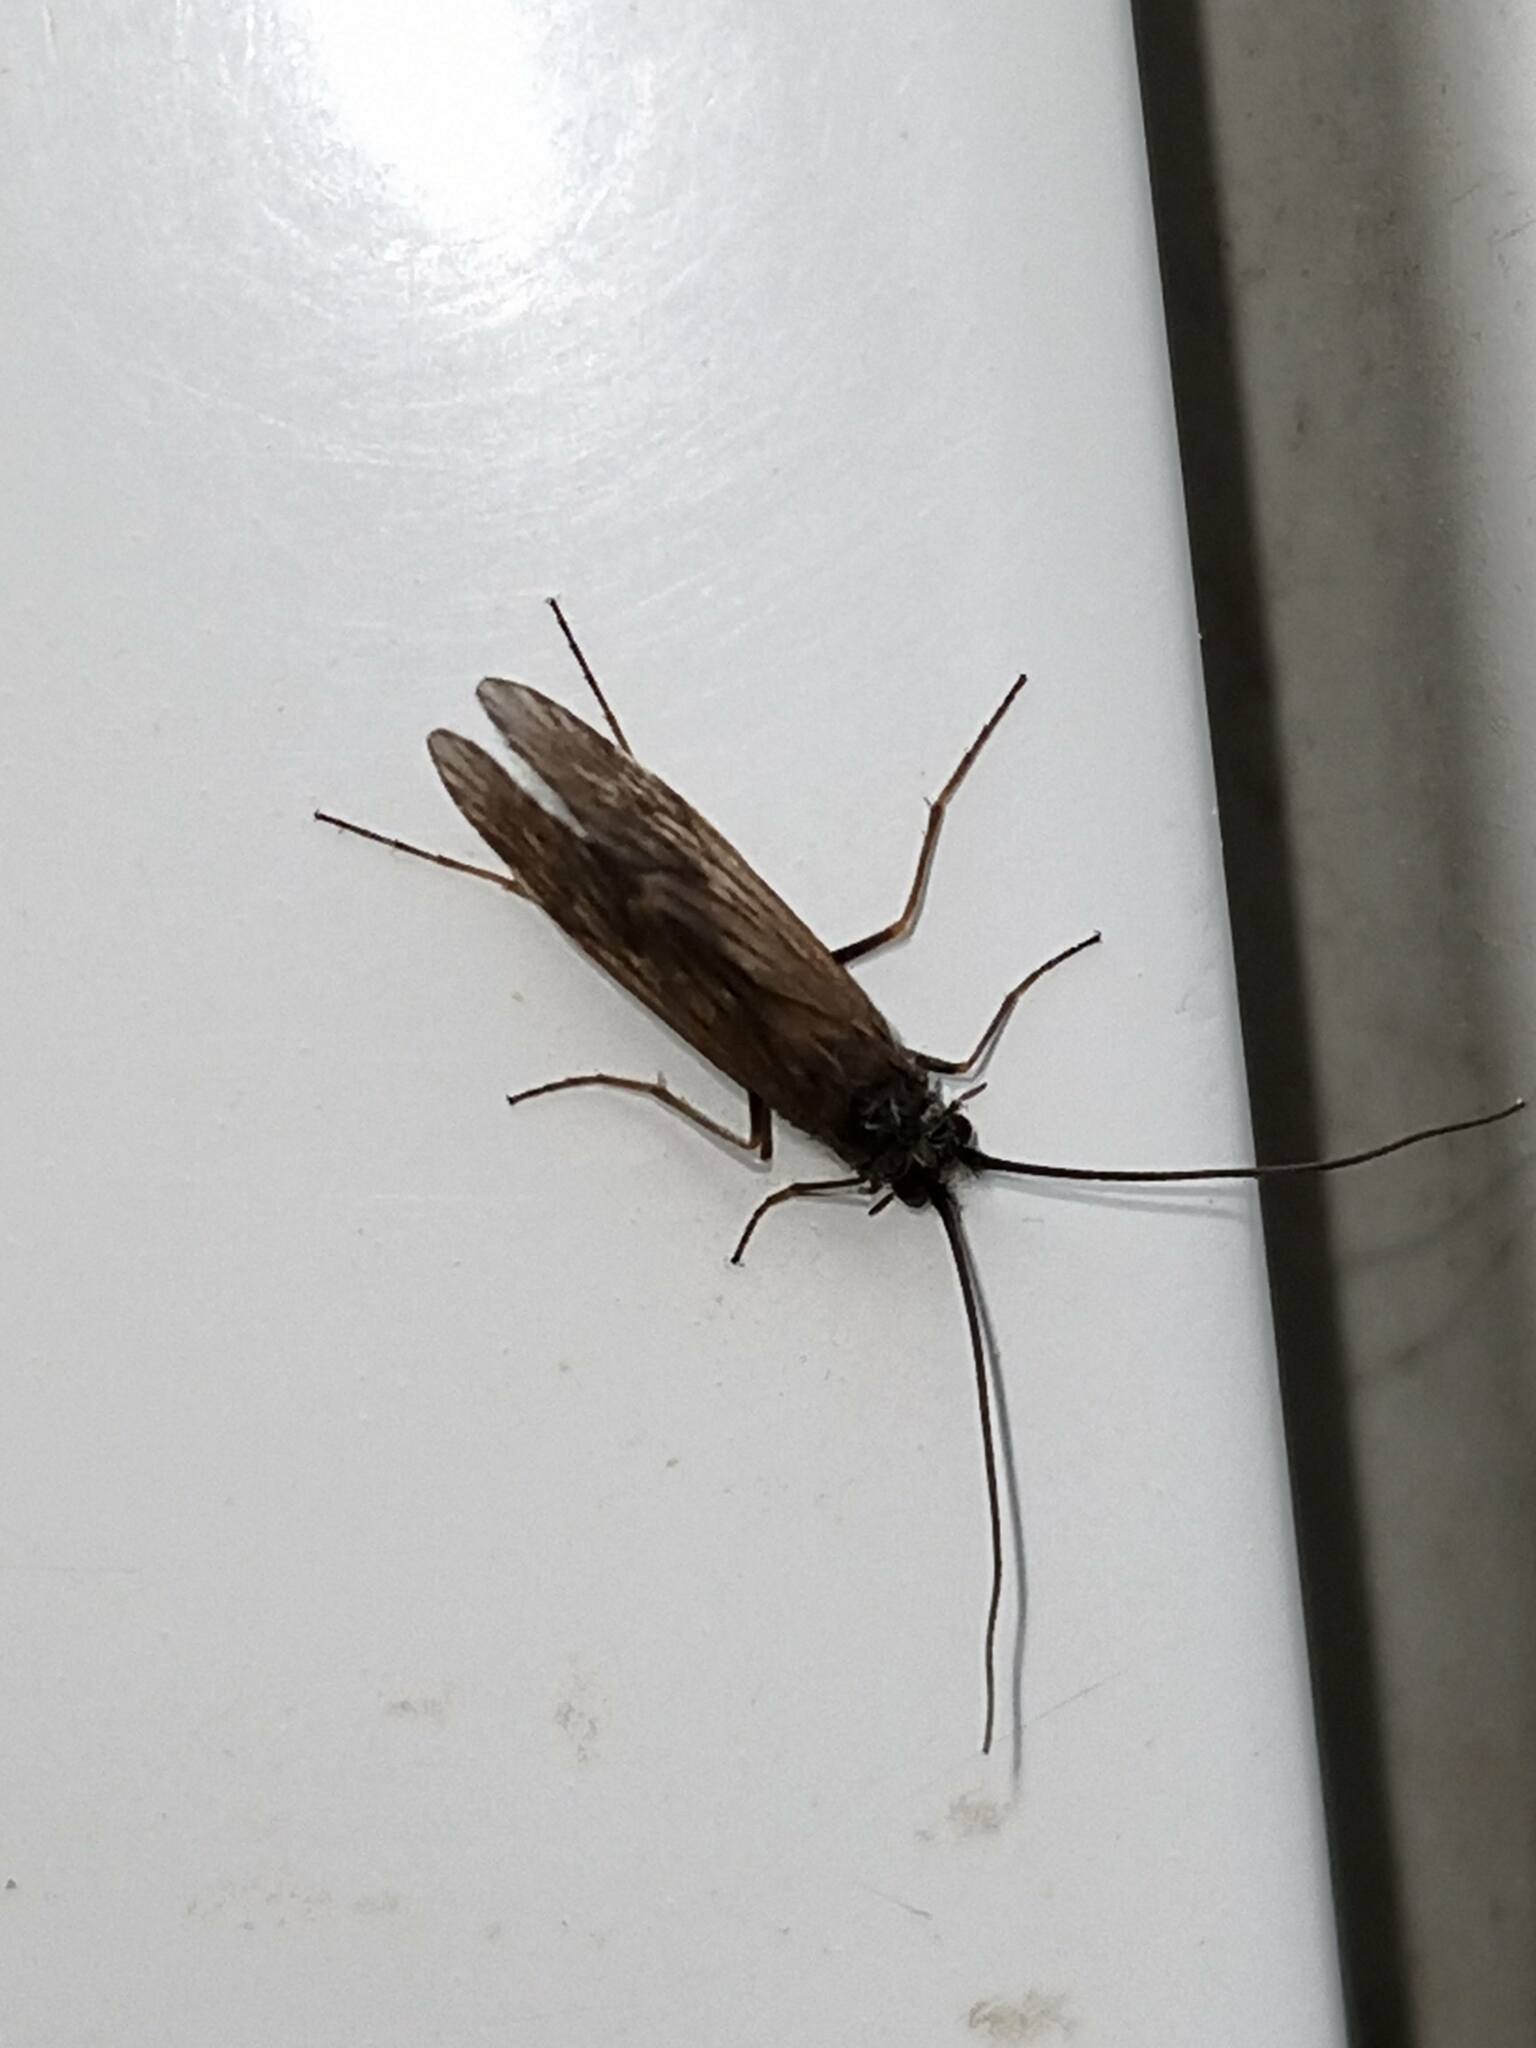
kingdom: Animalia
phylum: Arthropoda
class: Insecta
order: Trichoptera
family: Brachycentridae
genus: Brachycentrus
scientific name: Brachycentrus subnubilis
